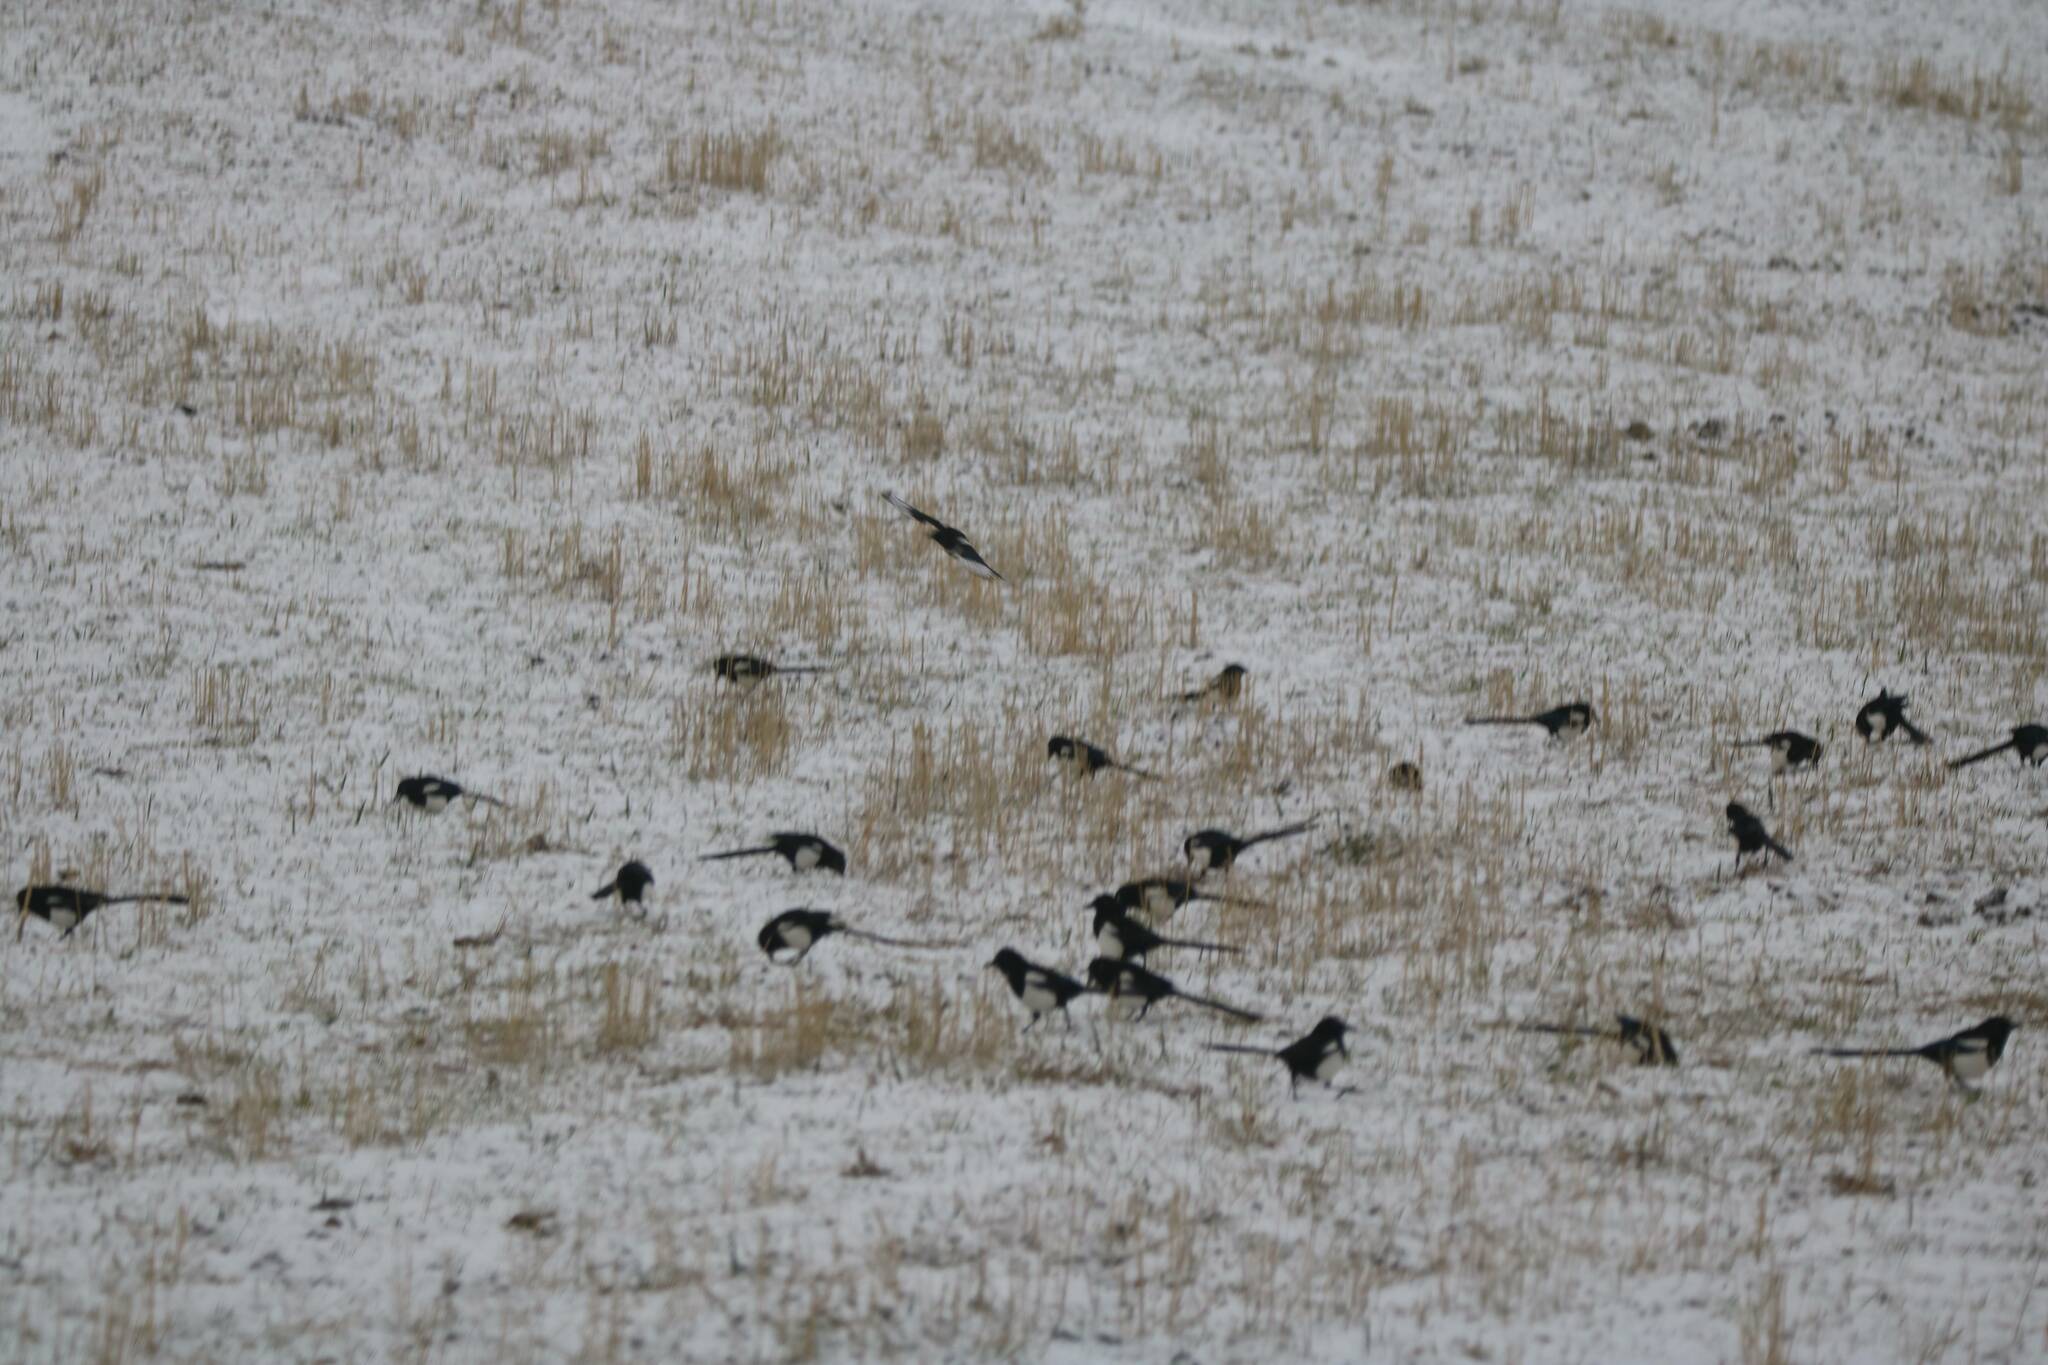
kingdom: Animalia
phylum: Chordata
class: Aves
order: Passeriformes
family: Corvidae
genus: Pica
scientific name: Pica mauritanica
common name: Maghreb magpie
